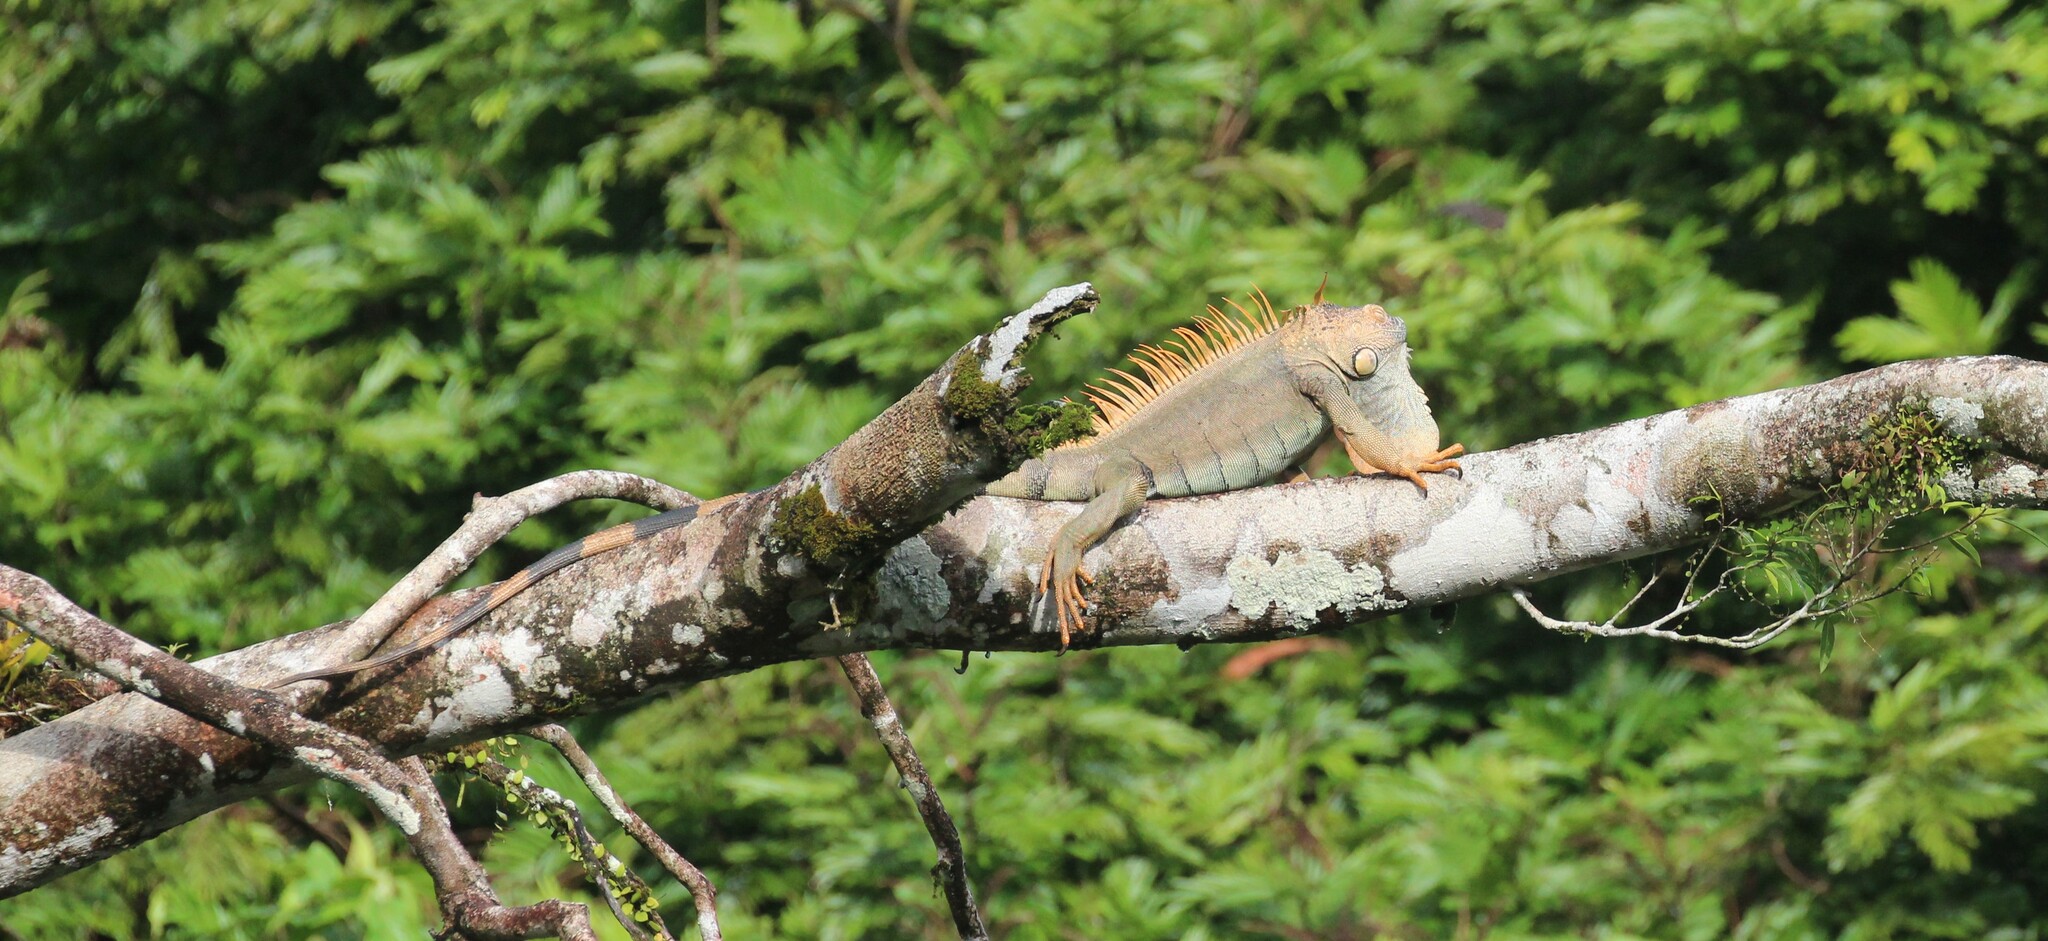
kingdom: Animalia
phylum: Chordata
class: Squamata
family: Iguanidae
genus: Iguana
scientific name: Iguana iguana
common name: Green iguana
